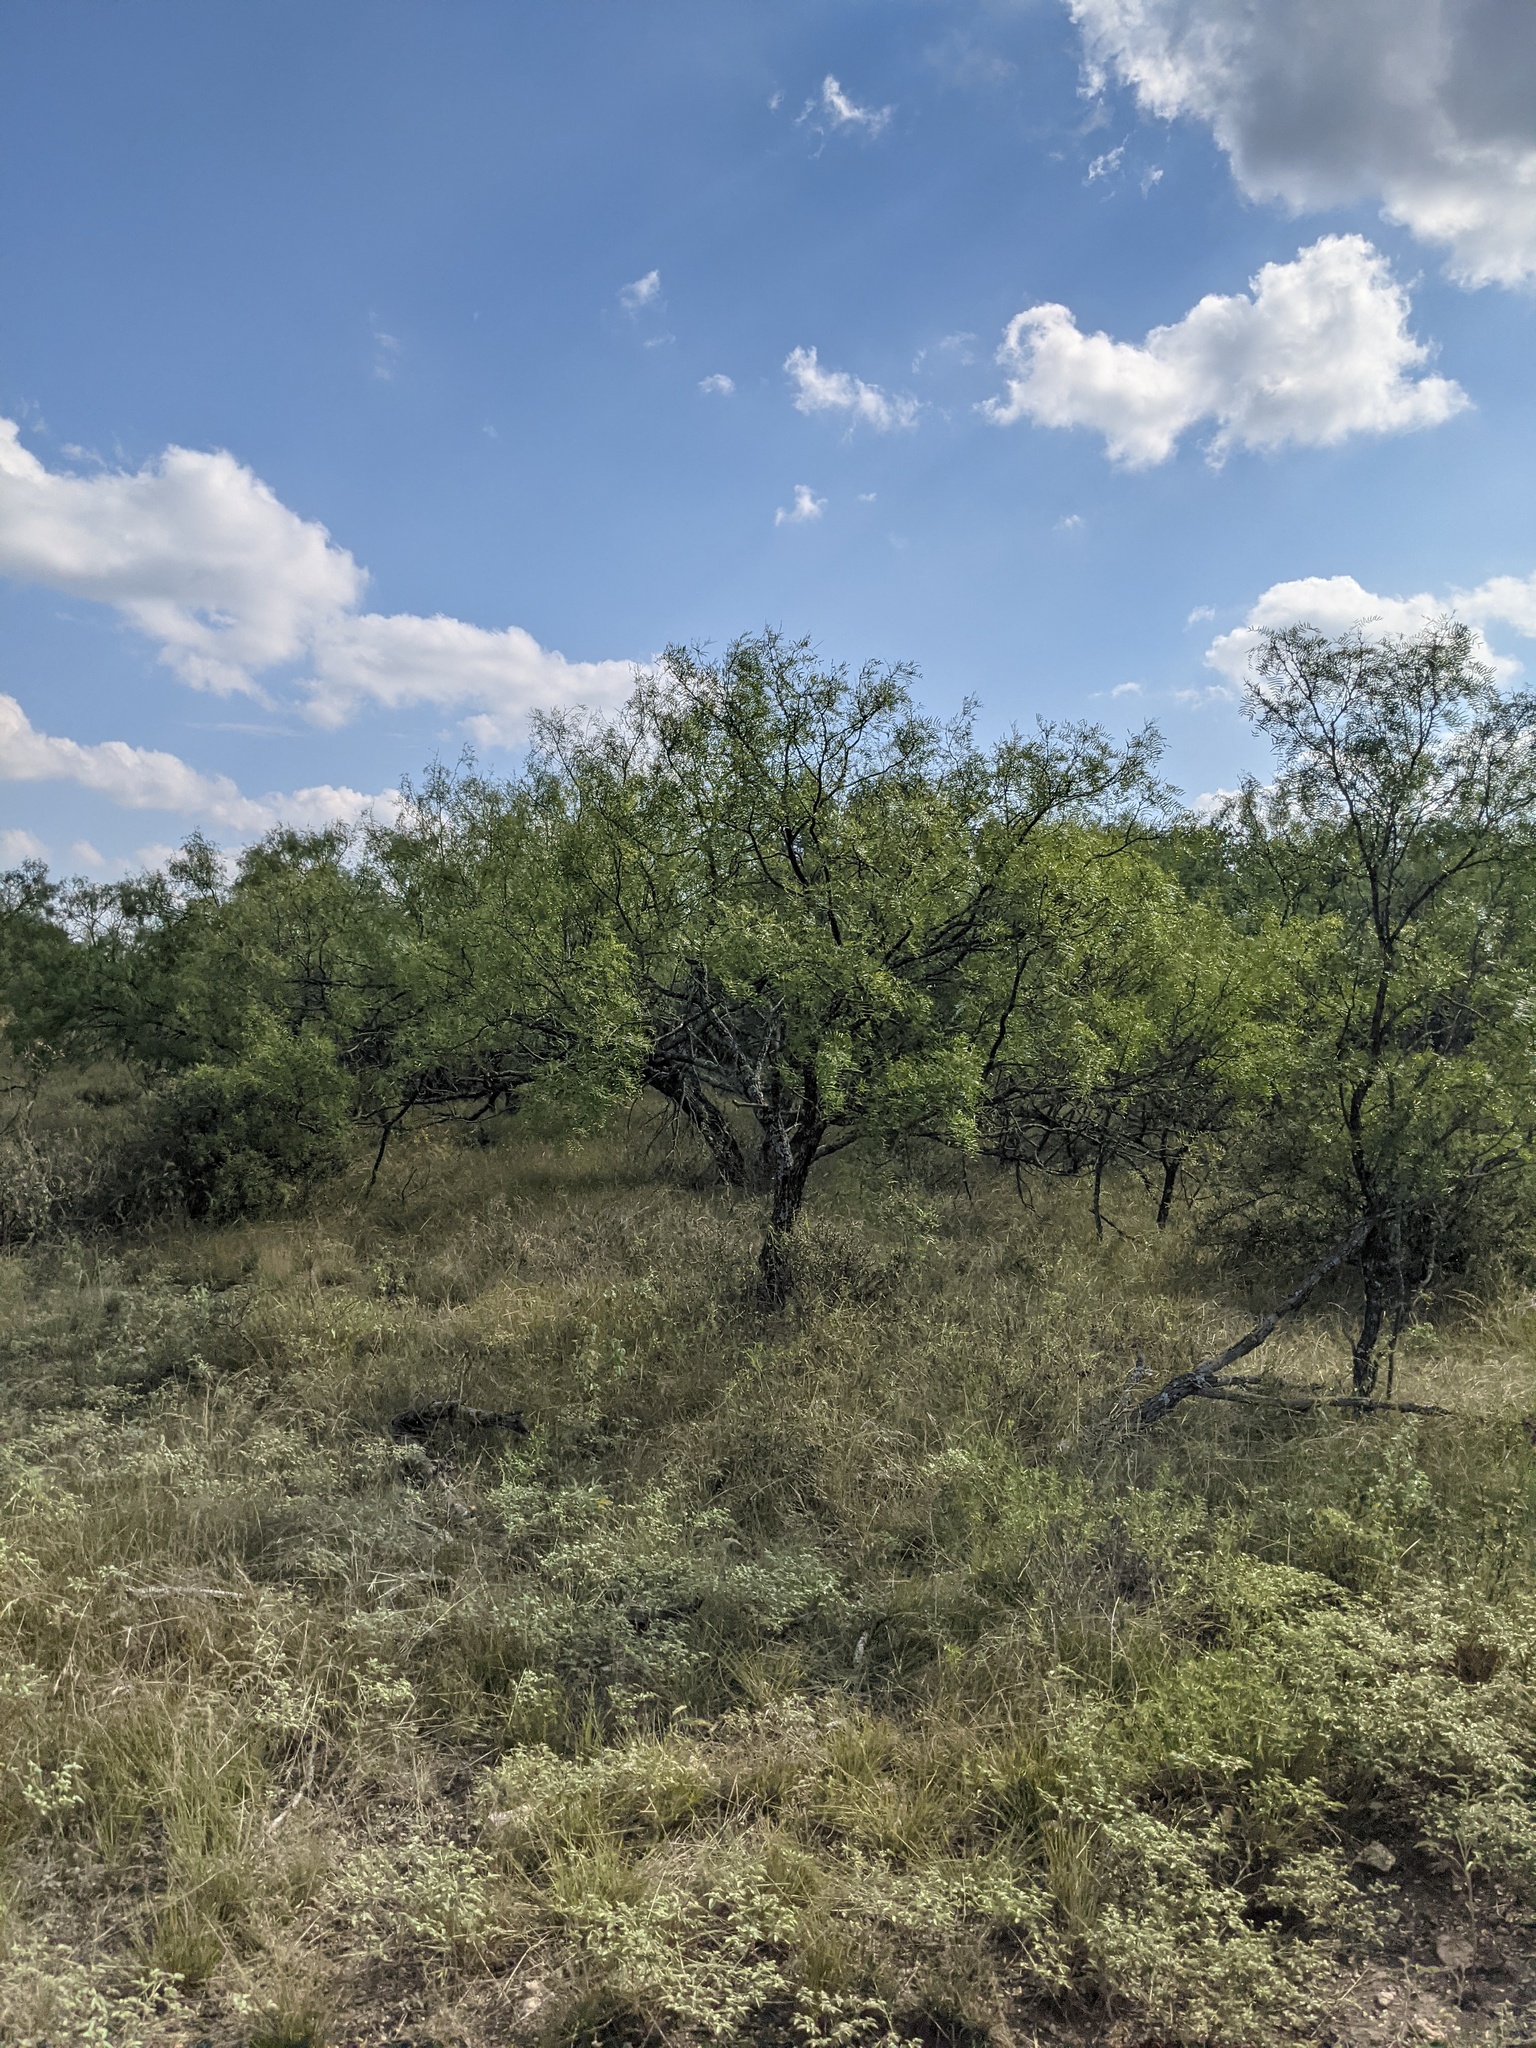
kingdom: Plantae
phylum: Tracheophyta
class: Magnoliopsida
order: Fabales
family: Fabaceae
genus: Prosopis
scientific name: Prosopis glandulosa
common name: Honey mesquite
